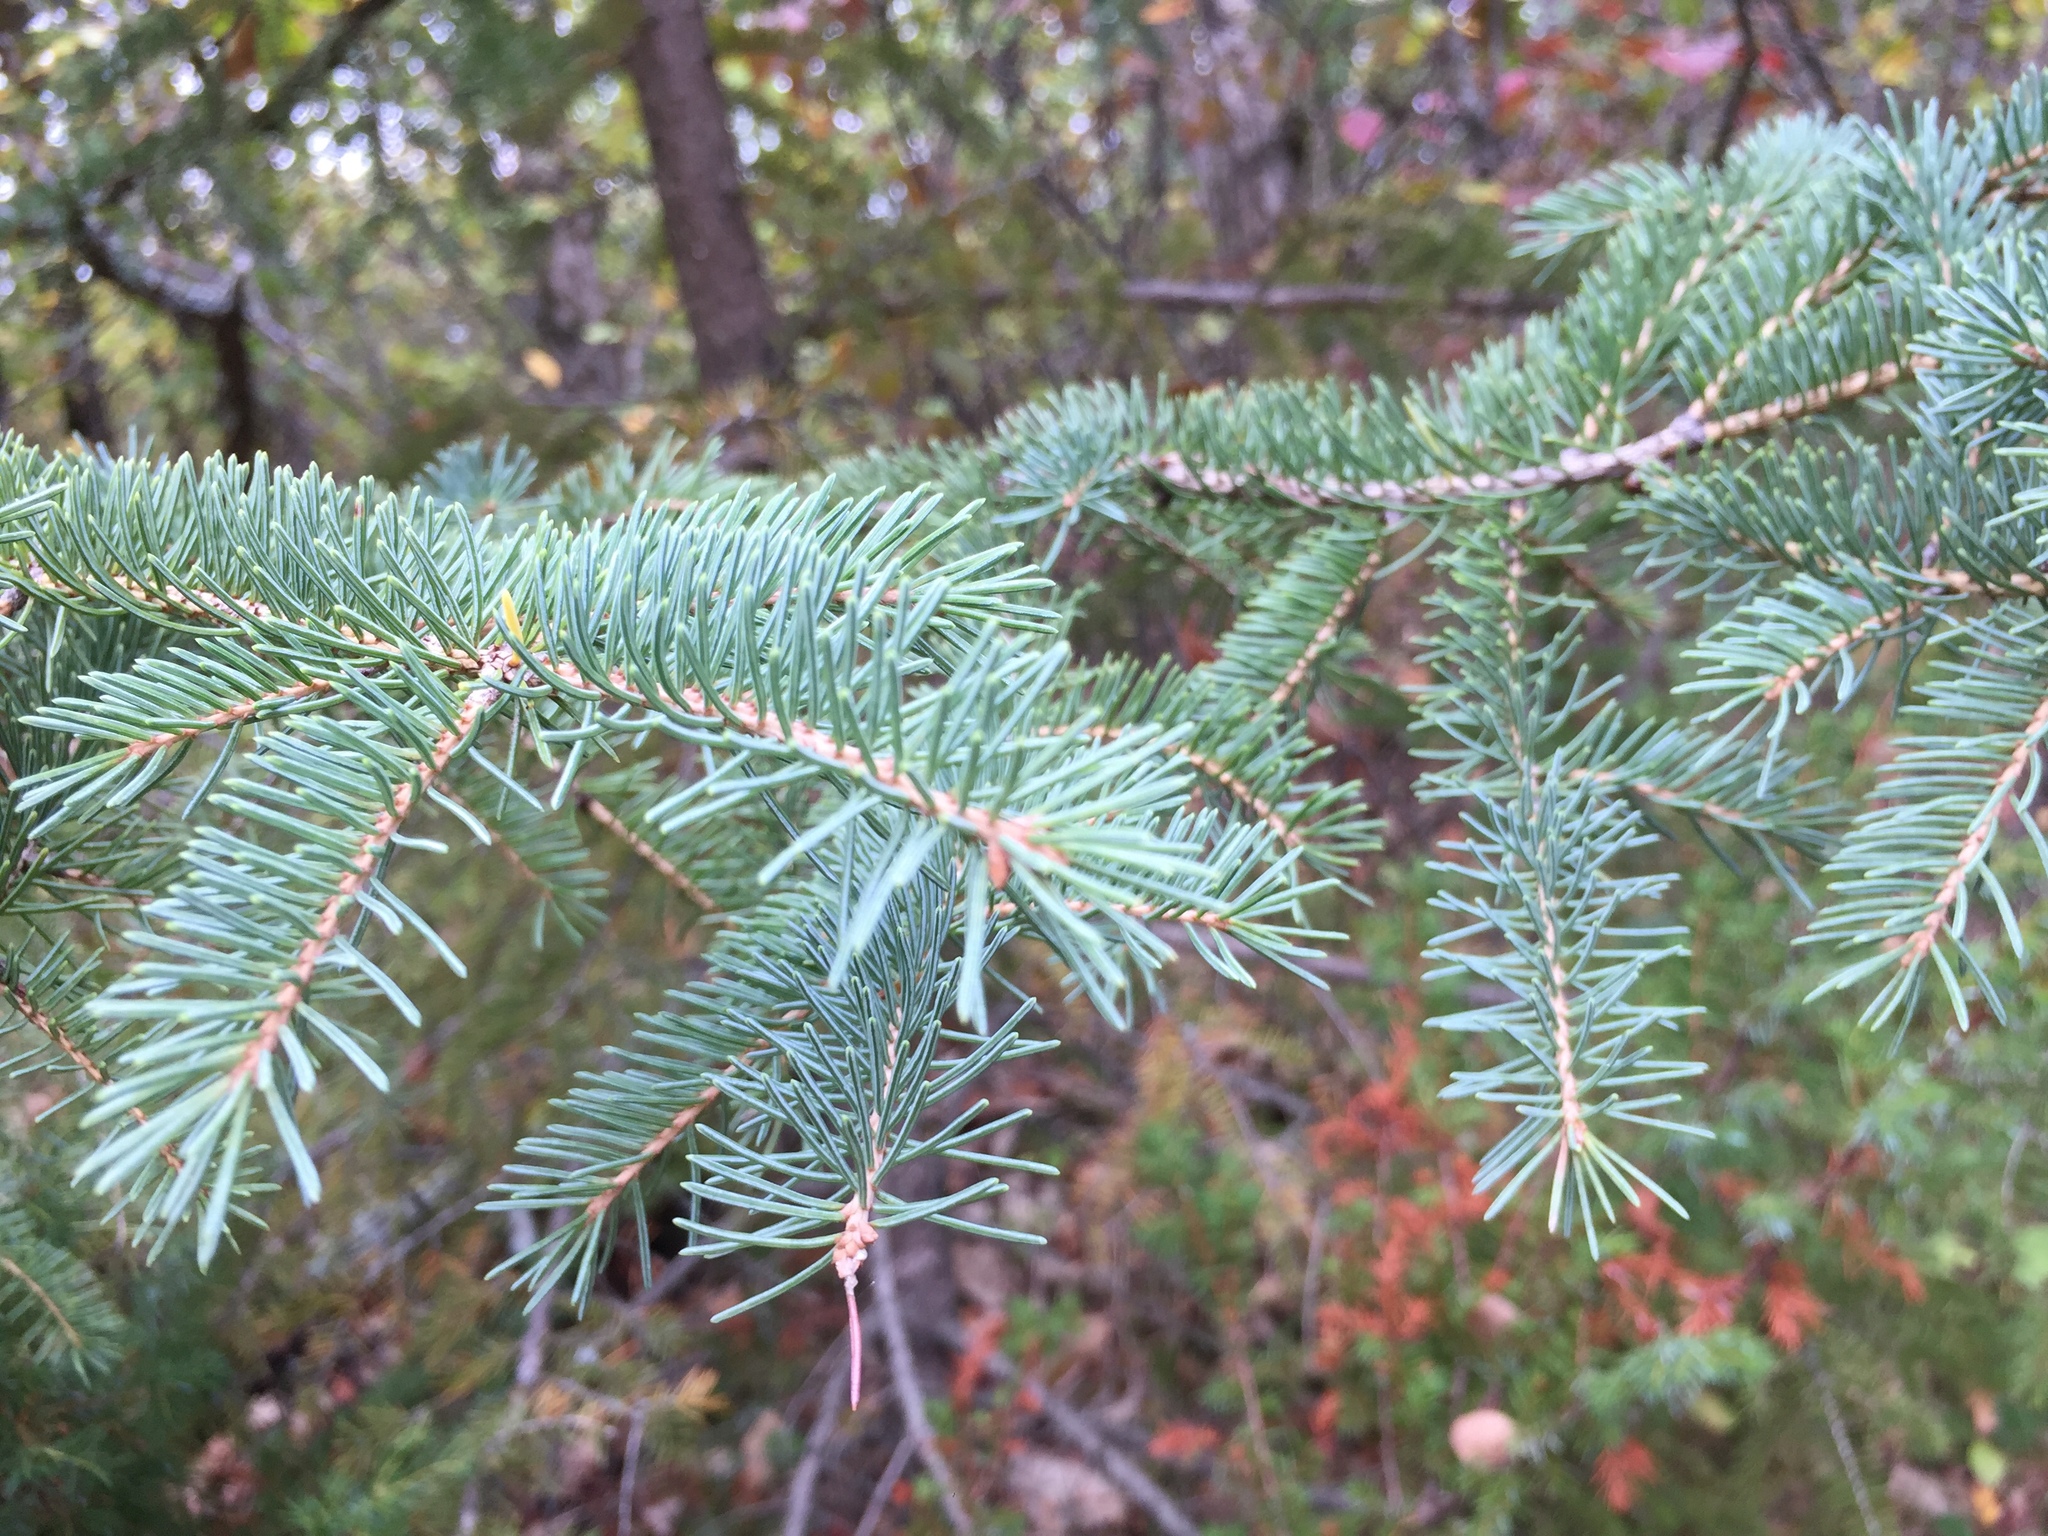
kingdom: Plantae
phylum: Tracheophyta
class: Pinopsida
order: Pinales
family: Pinaceae
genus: Picea
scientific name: Picea glauca
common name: White spruce
